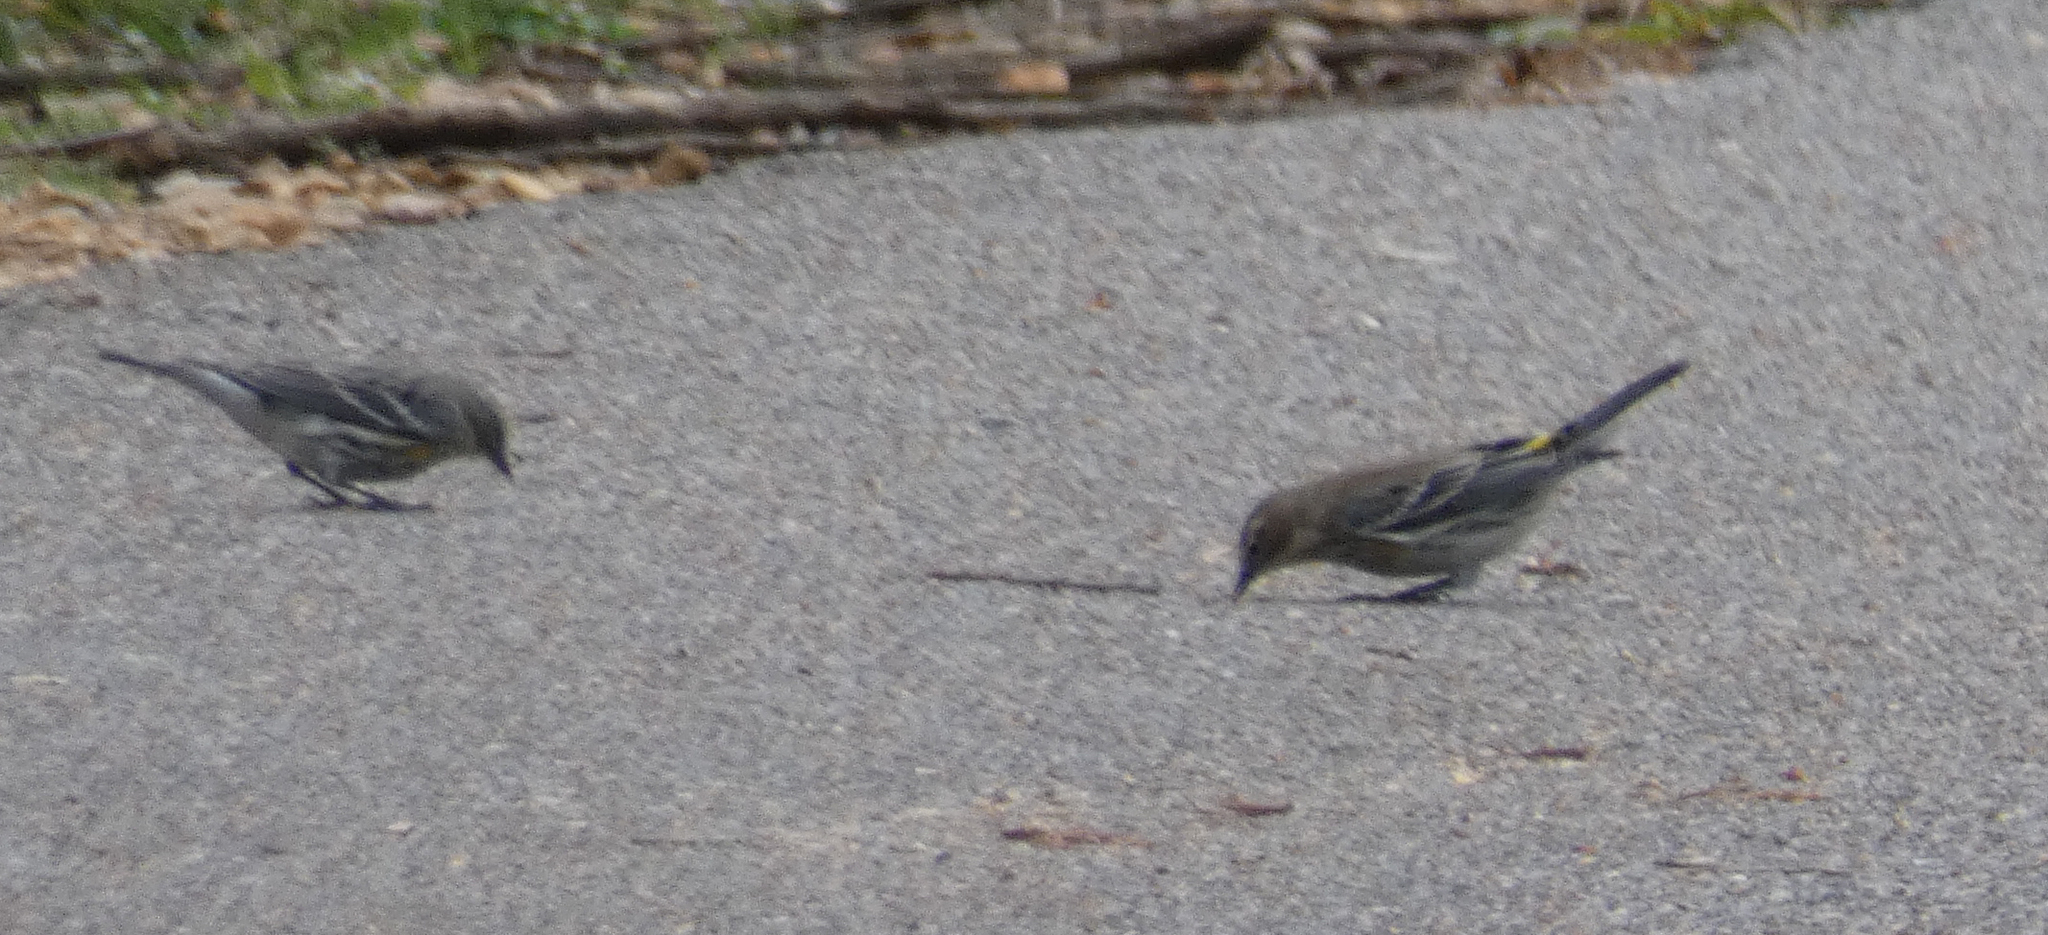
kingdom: Animalia
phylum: Chordata
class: Aves
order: Passeriformes
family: Parulidae
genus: Setophaga
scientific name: Setophaga coronata
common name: Myrtle warbler
